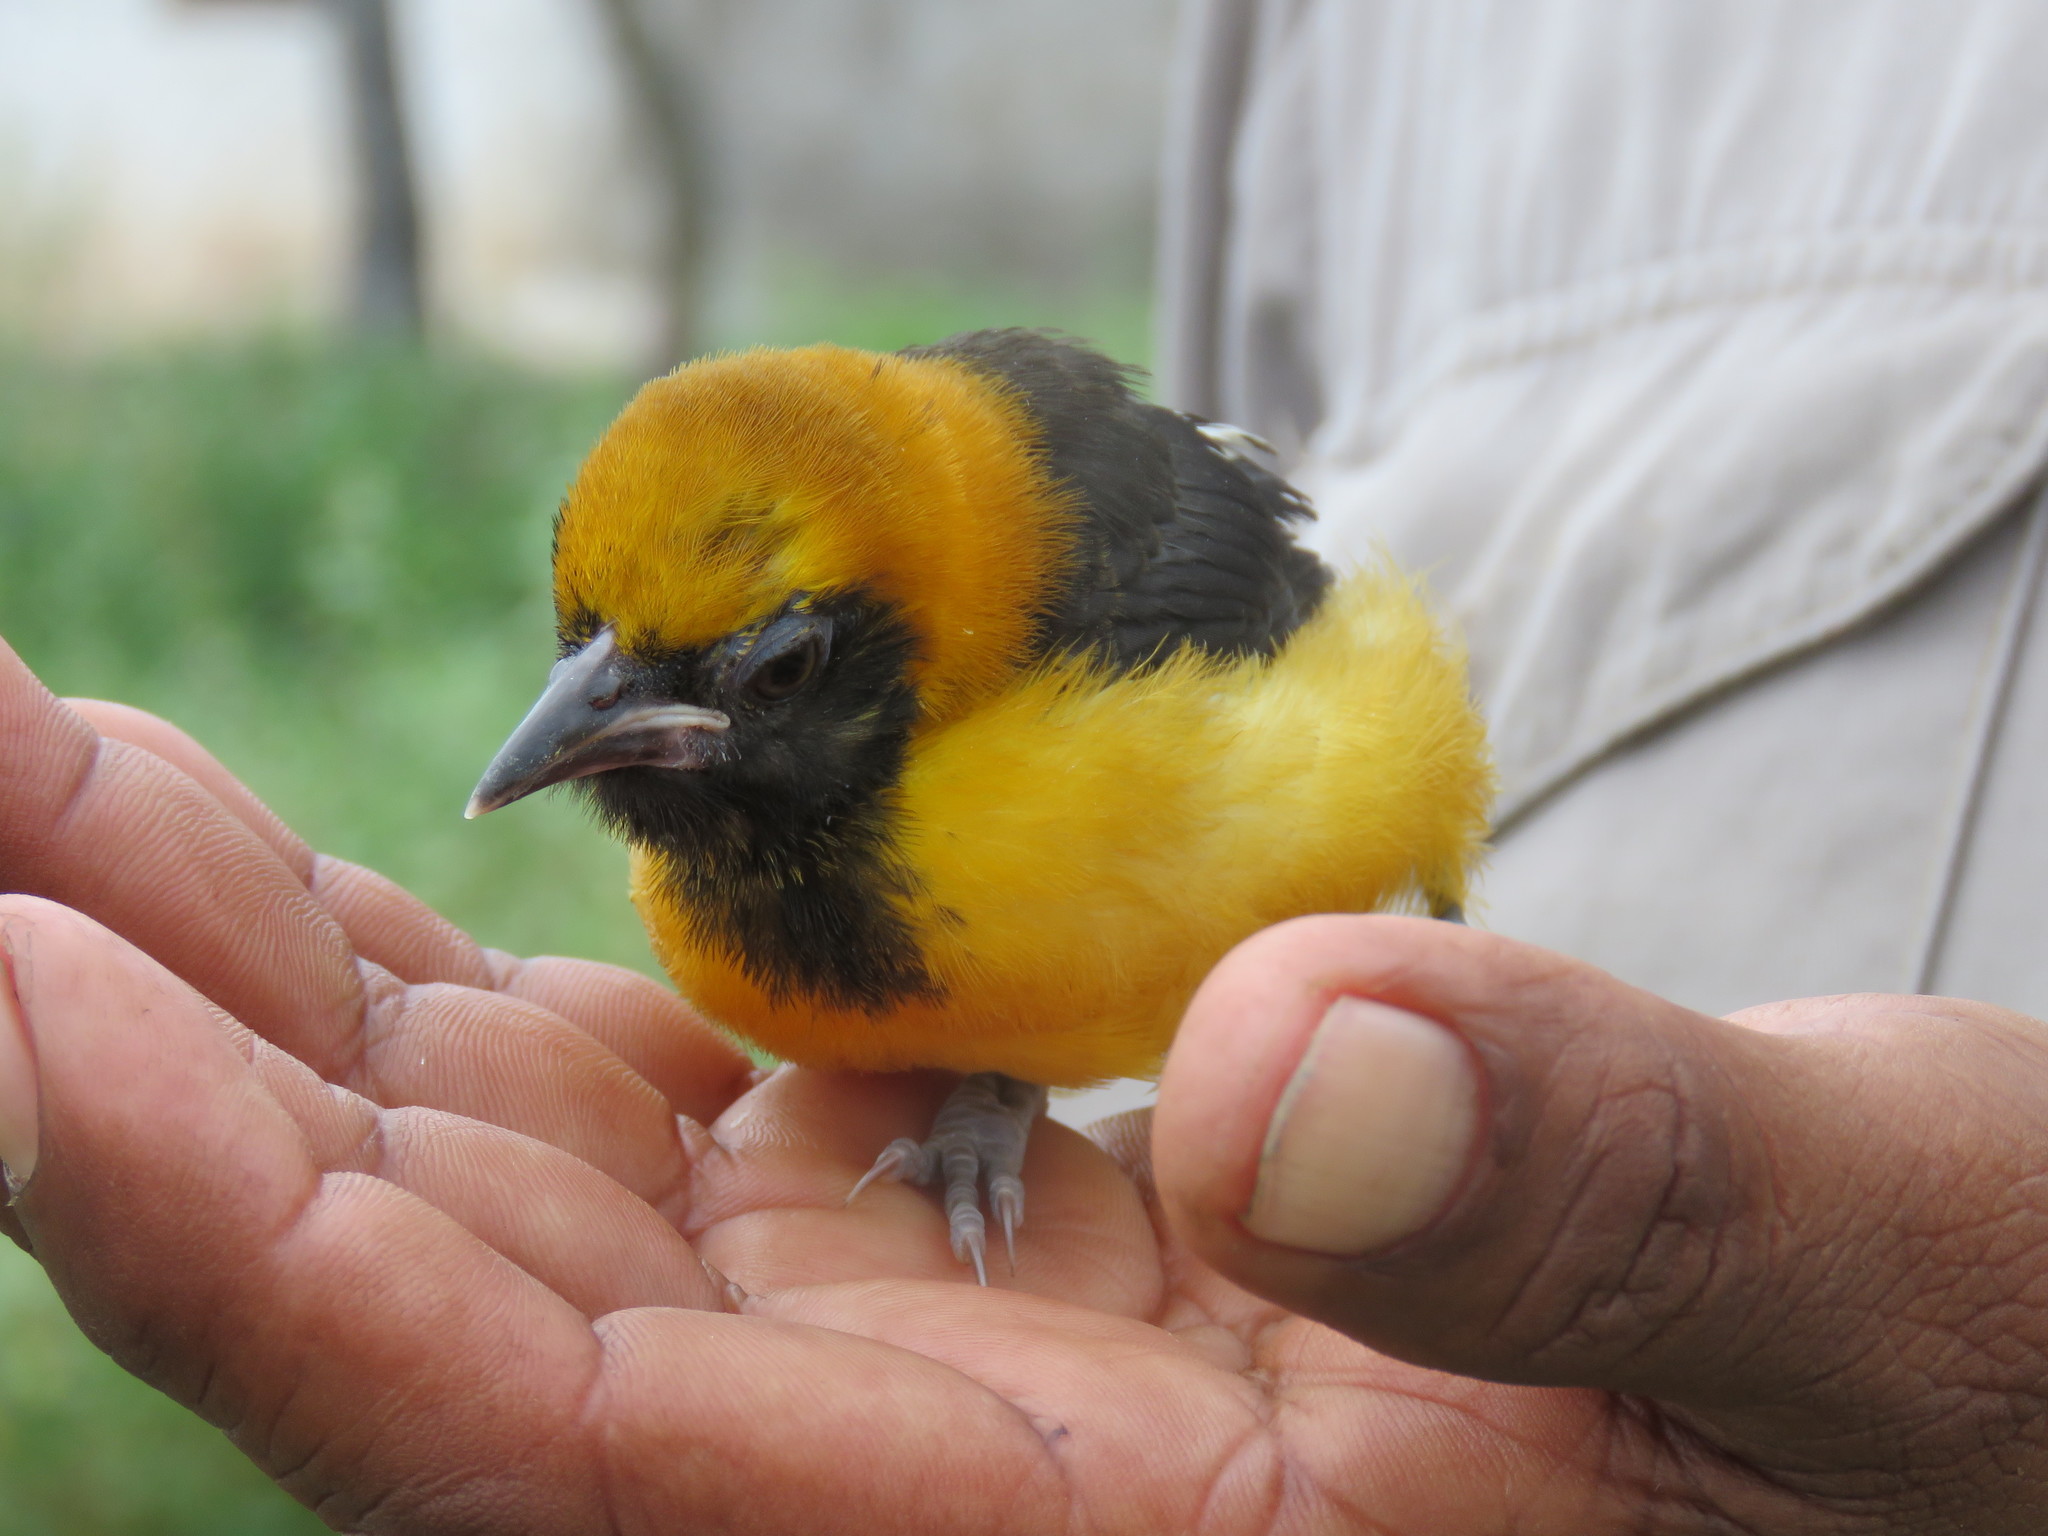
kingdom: Animalia
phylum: Chordata
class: Aves
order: Passeriformes
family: Icteridae
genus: Icterus
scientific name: Icterus icterus
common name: Venezuelan troupial
